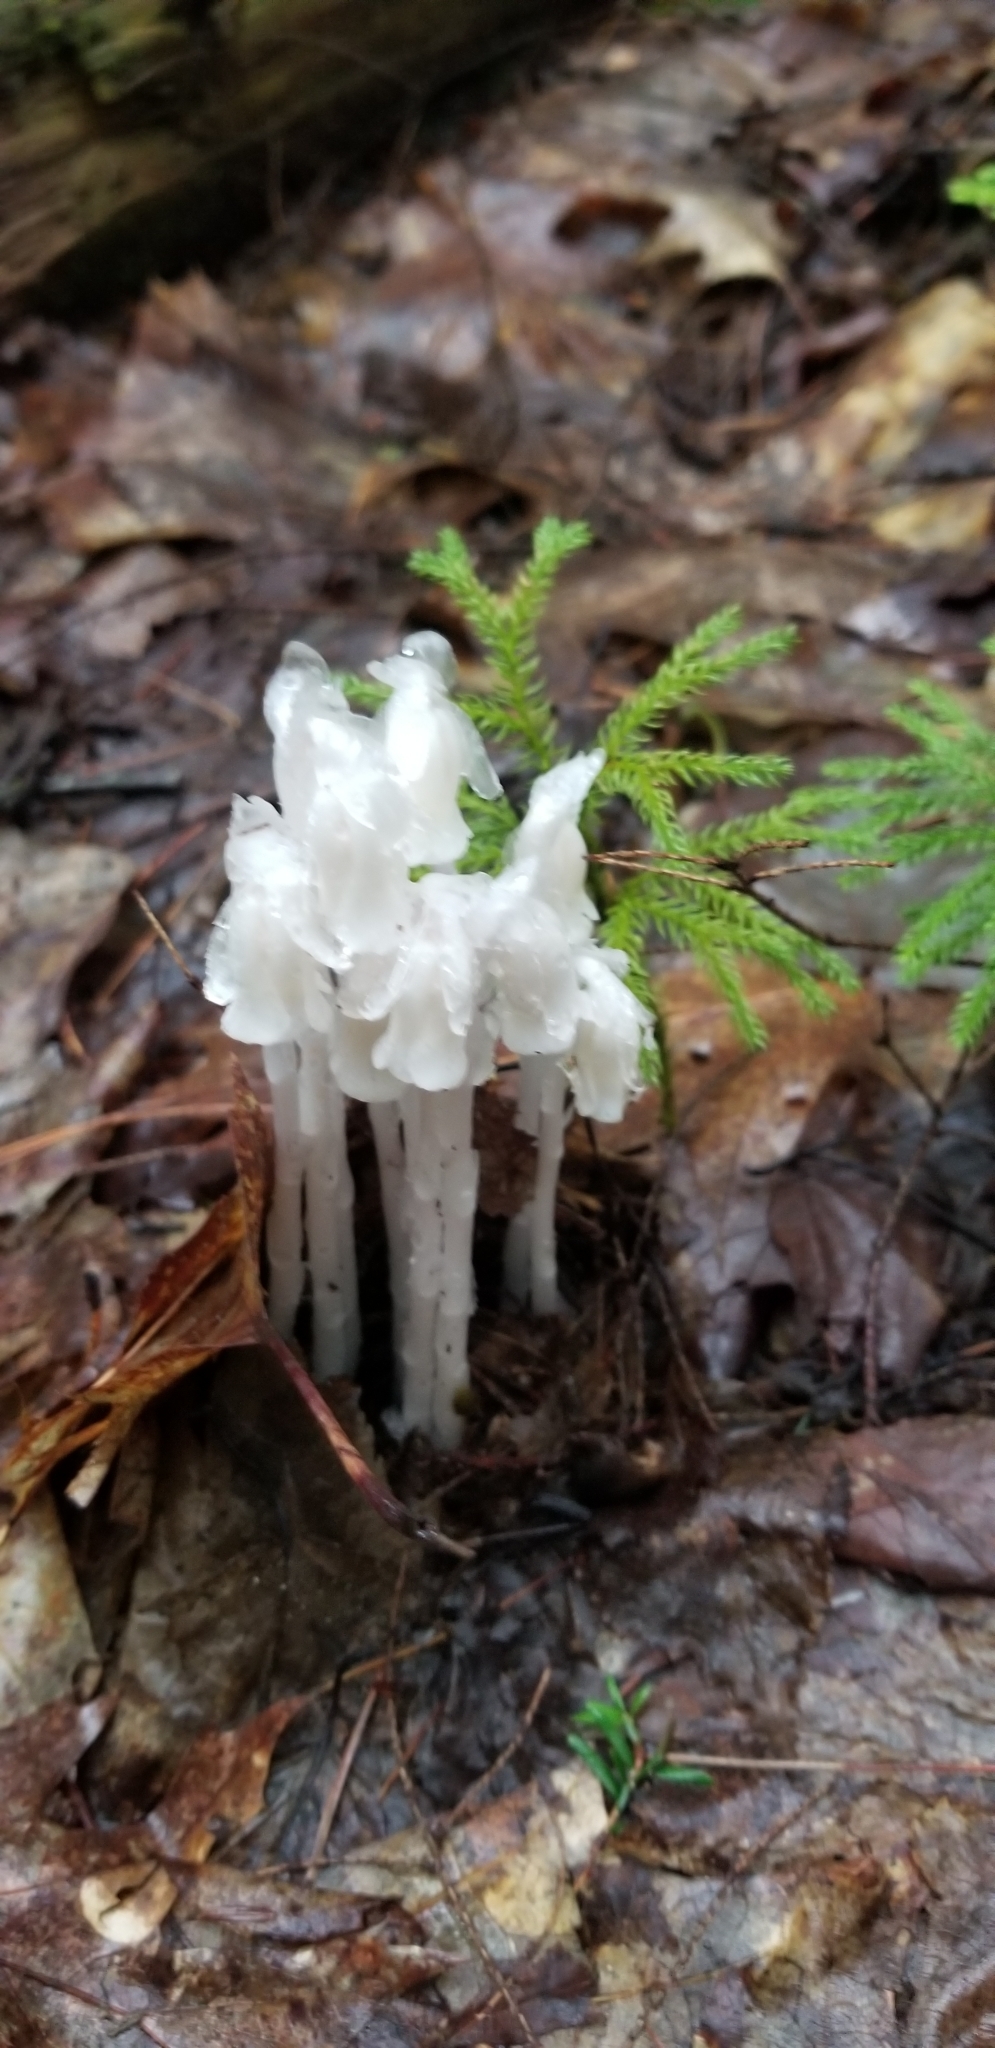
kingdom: Plantae
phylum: Tracheophyta
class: Magnoliopsida
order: Ericales
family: Ericaceae
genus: Monotropa
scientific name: Monotropa uniflora
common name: Convulsion root
